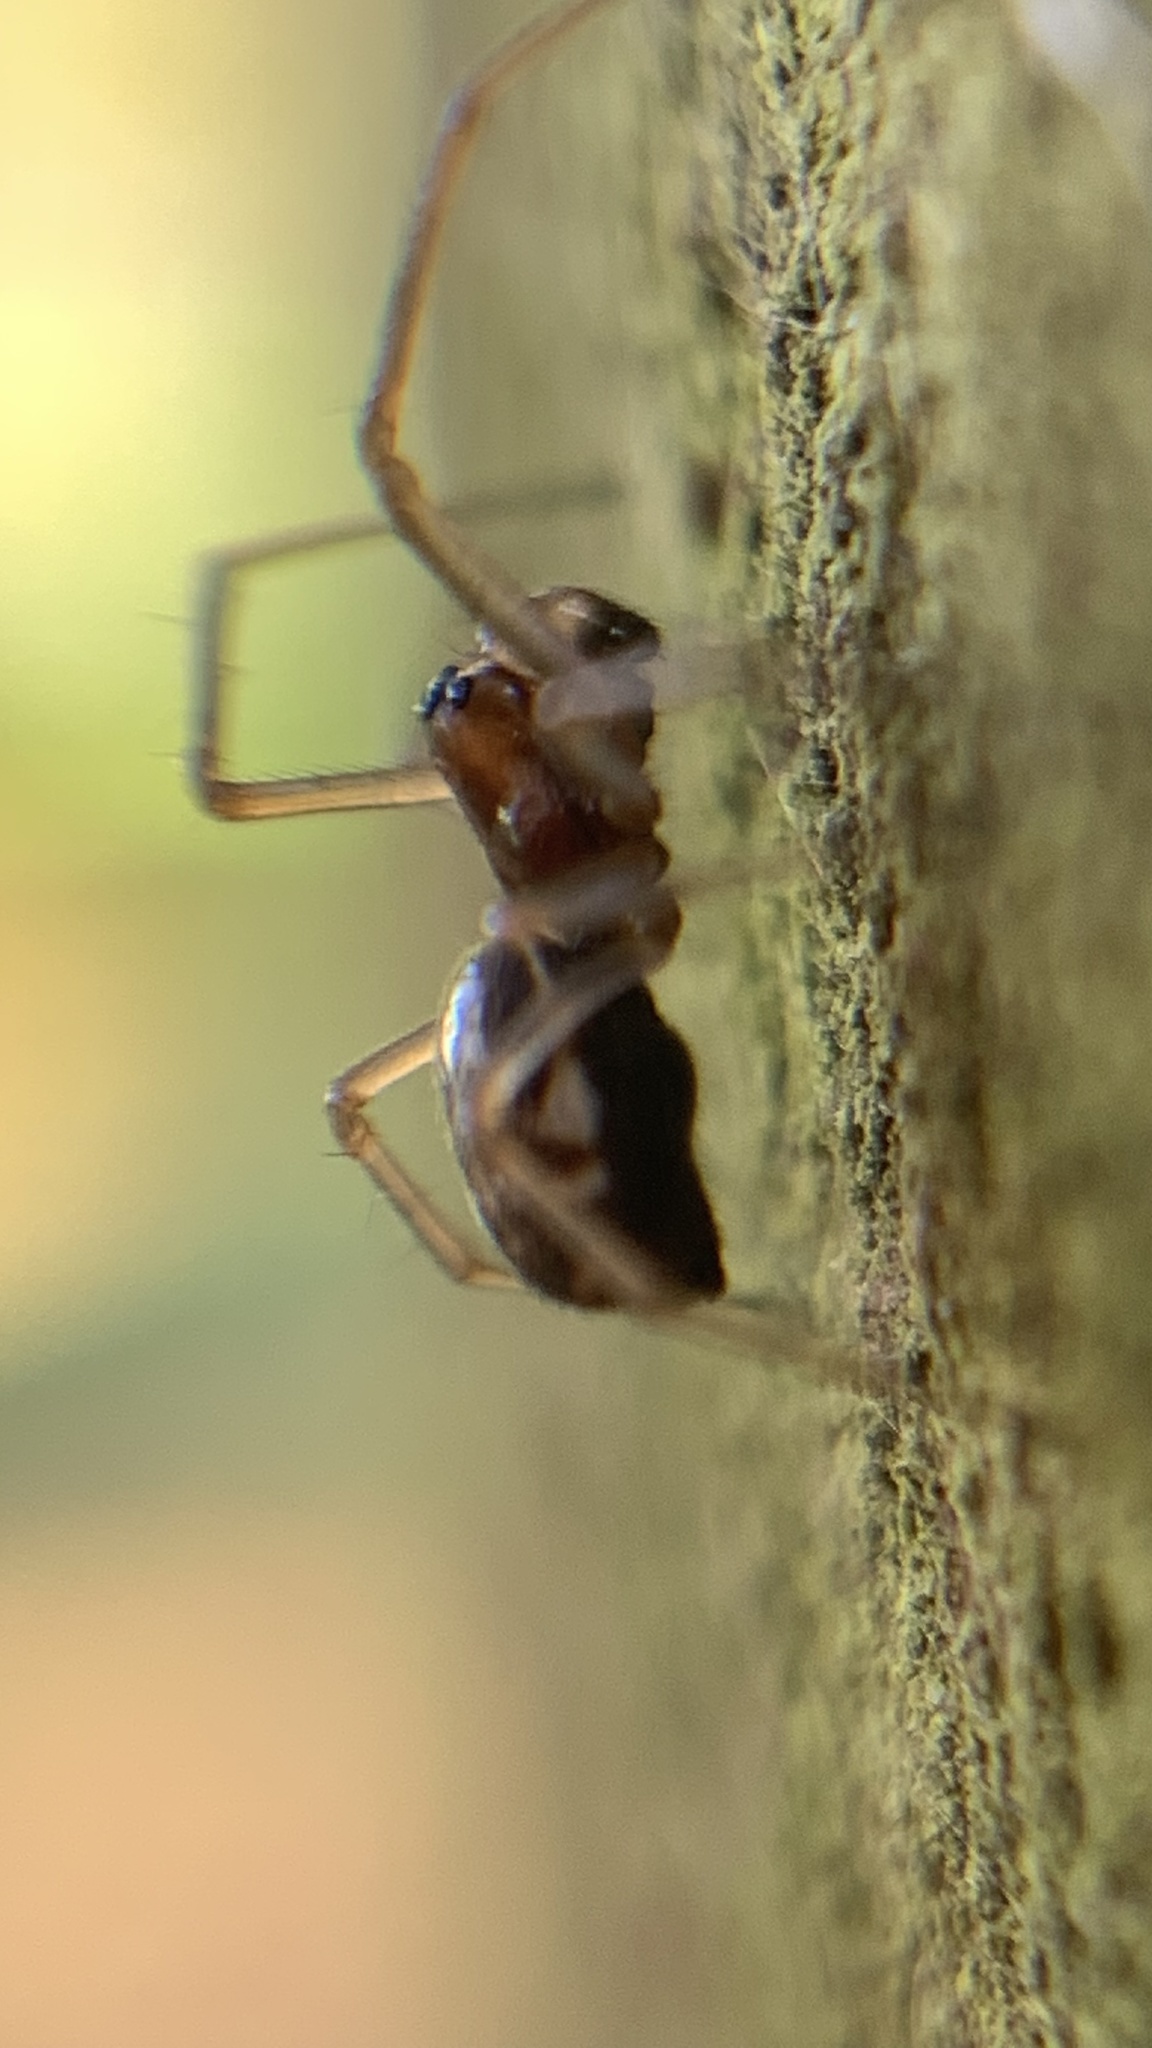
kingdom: Animalia
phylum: Arthropoda
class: Arachnida
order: Araneae
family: Linyphiidae
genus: Microlinyphia
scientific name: Microlinyphia pusilla
